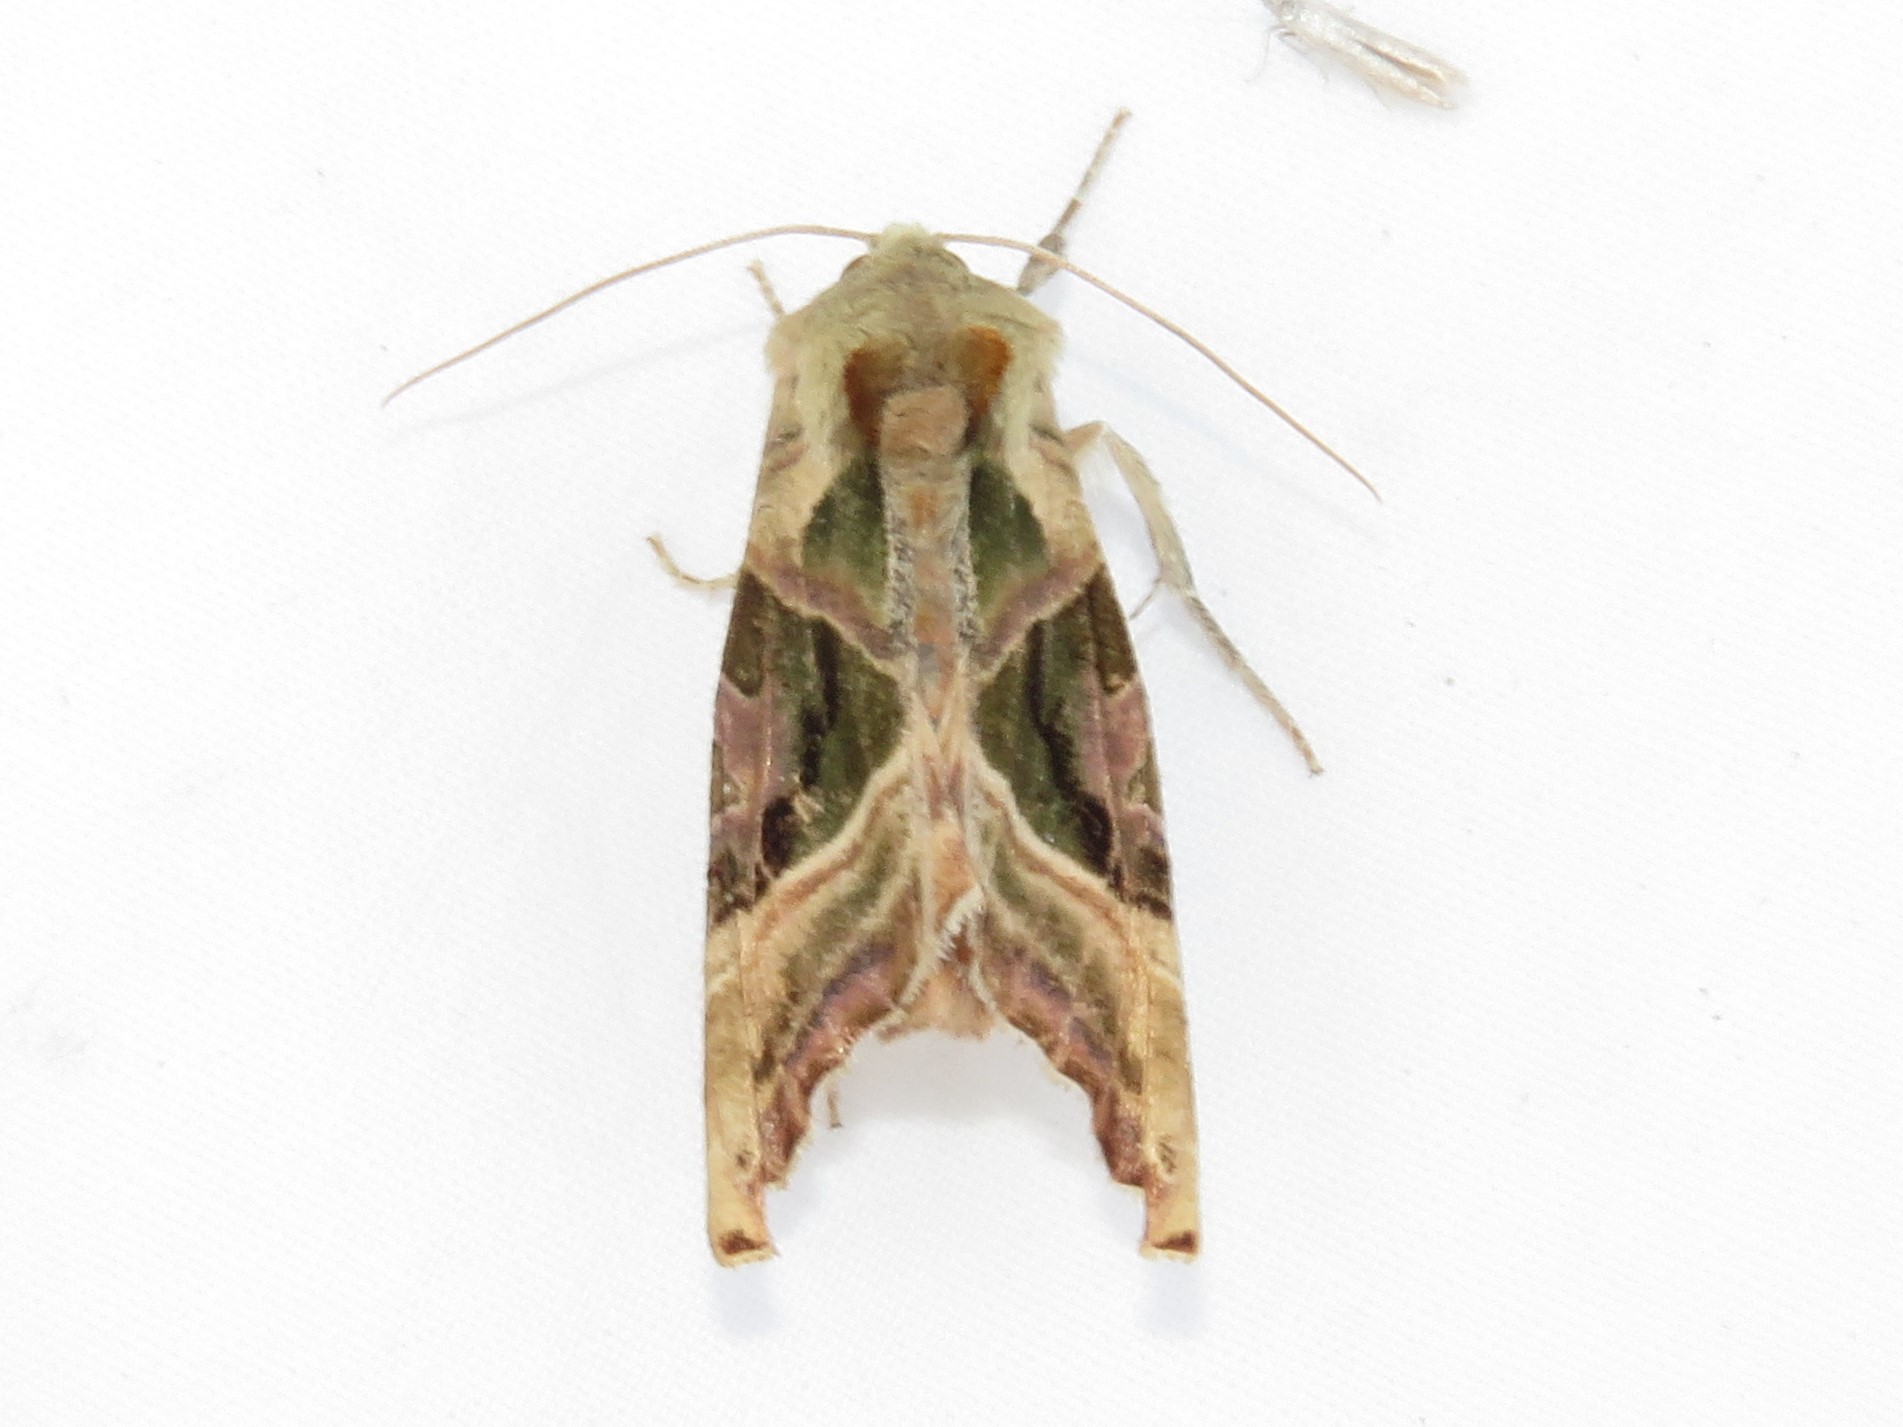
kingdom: Animalia
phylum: Arthropoda
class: Insecta
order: Lepidoptera
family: Noctuidae
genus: Phlogophora
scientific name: Phlogophora iris
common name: Olive angle shades
